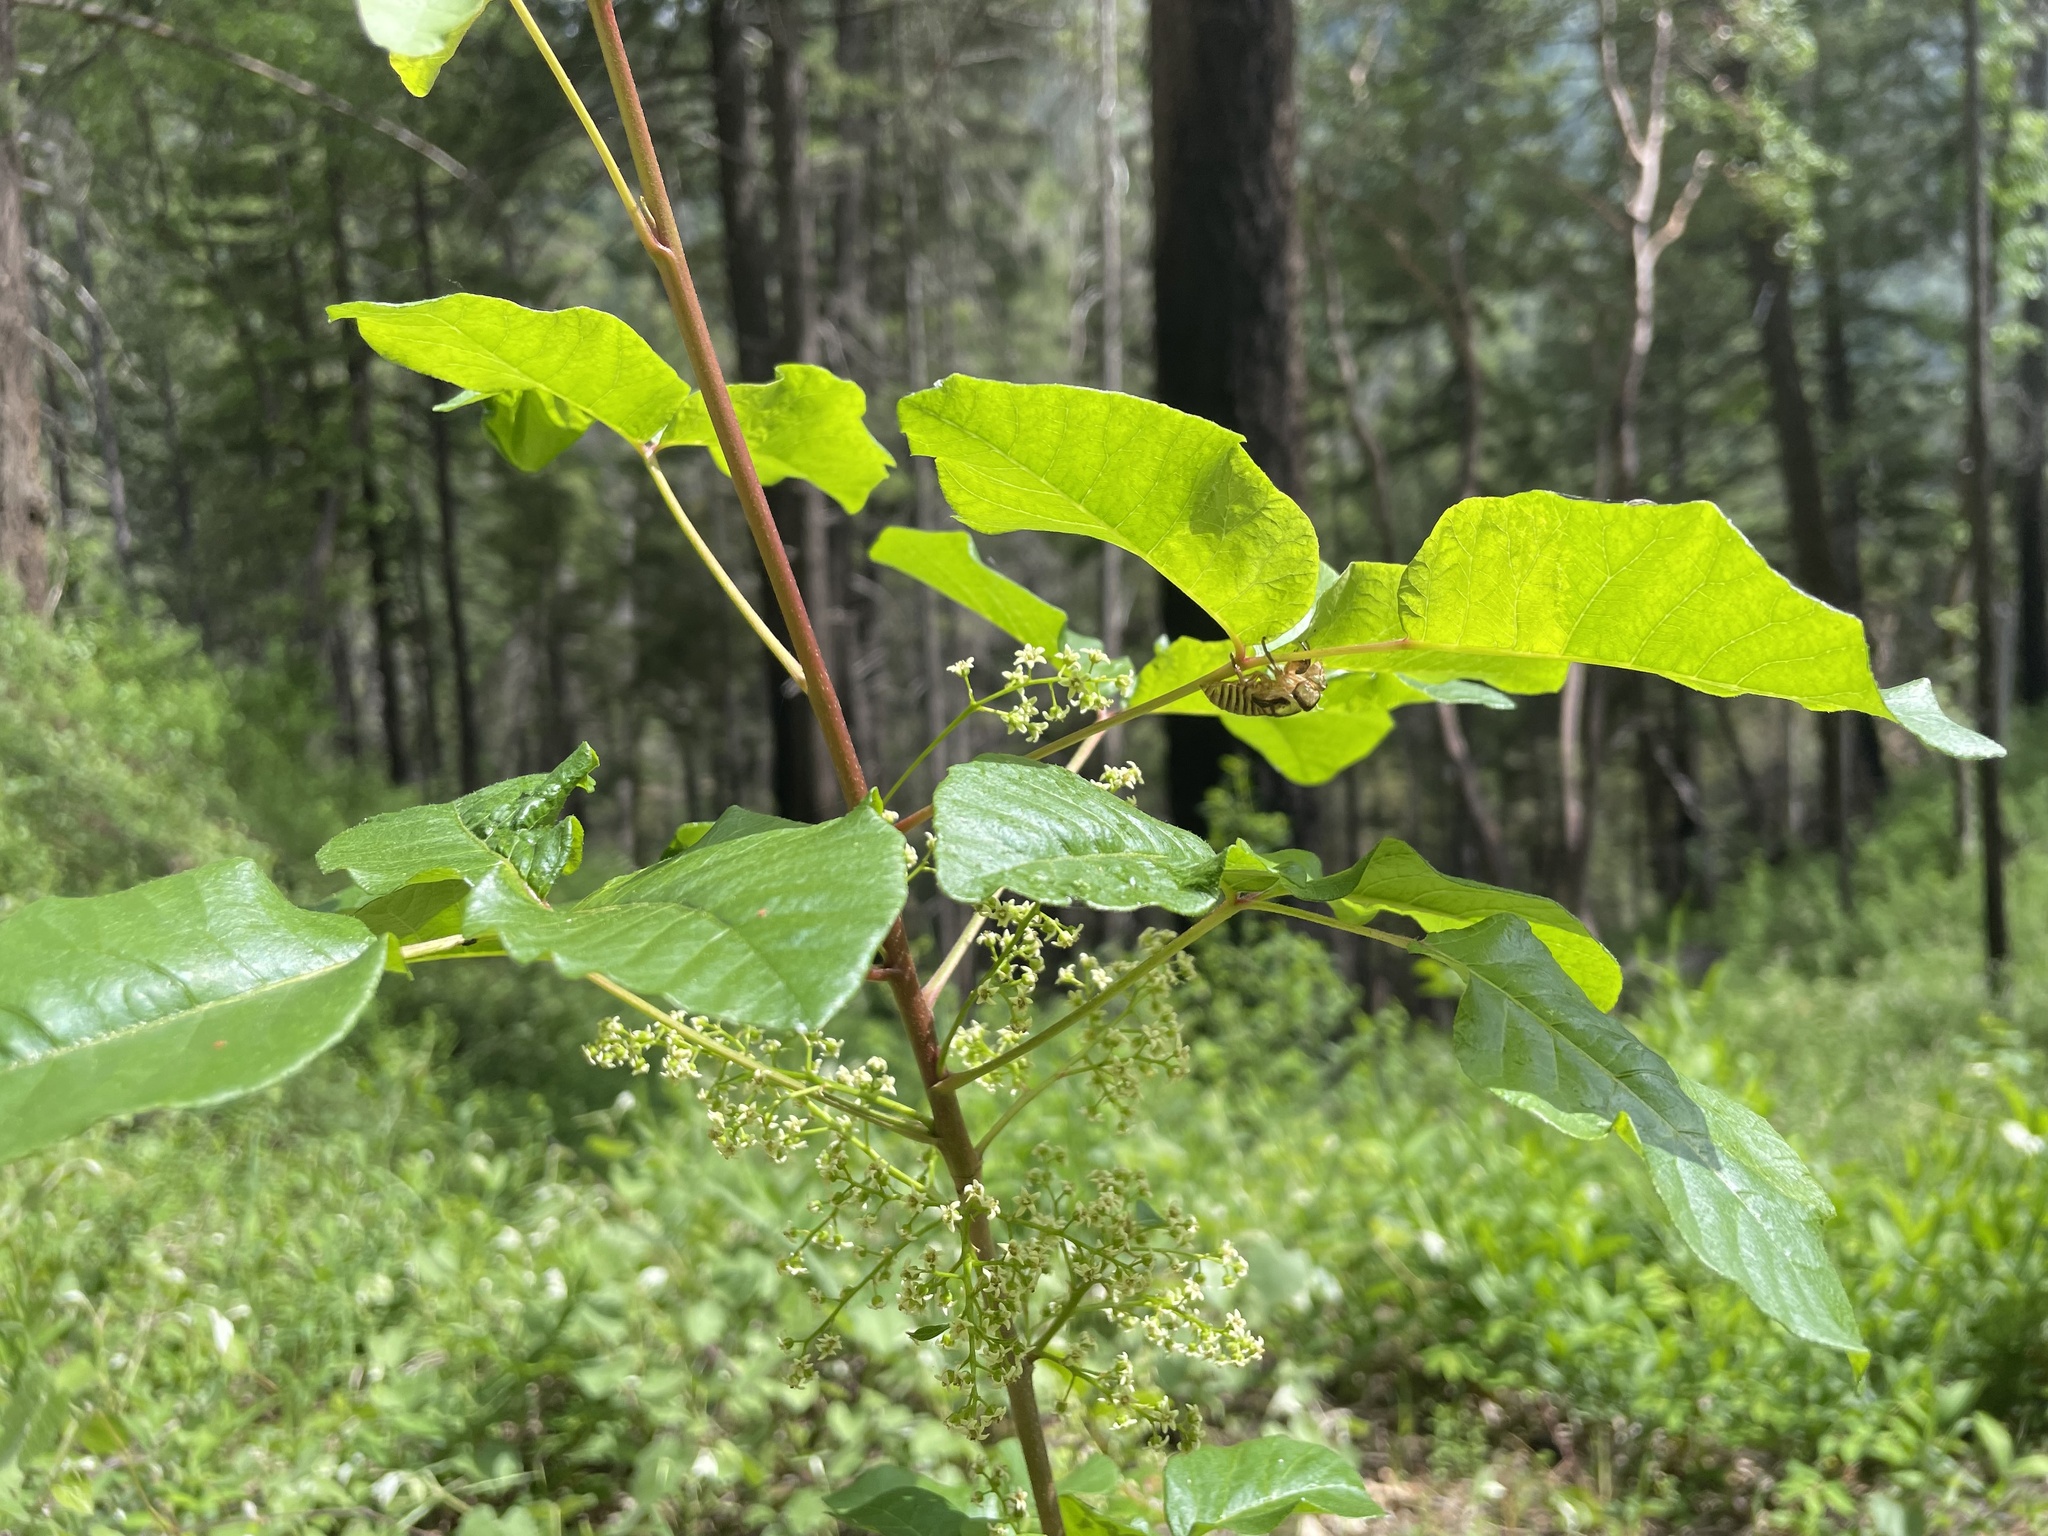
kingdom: Plantae
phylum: Tracheophyta
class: Magnoliopsida
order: Sapindales
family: Anacardiaceae
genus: Toxicodendron
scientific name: Toxicodendron diversilobum
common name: Pacific poison-oak
